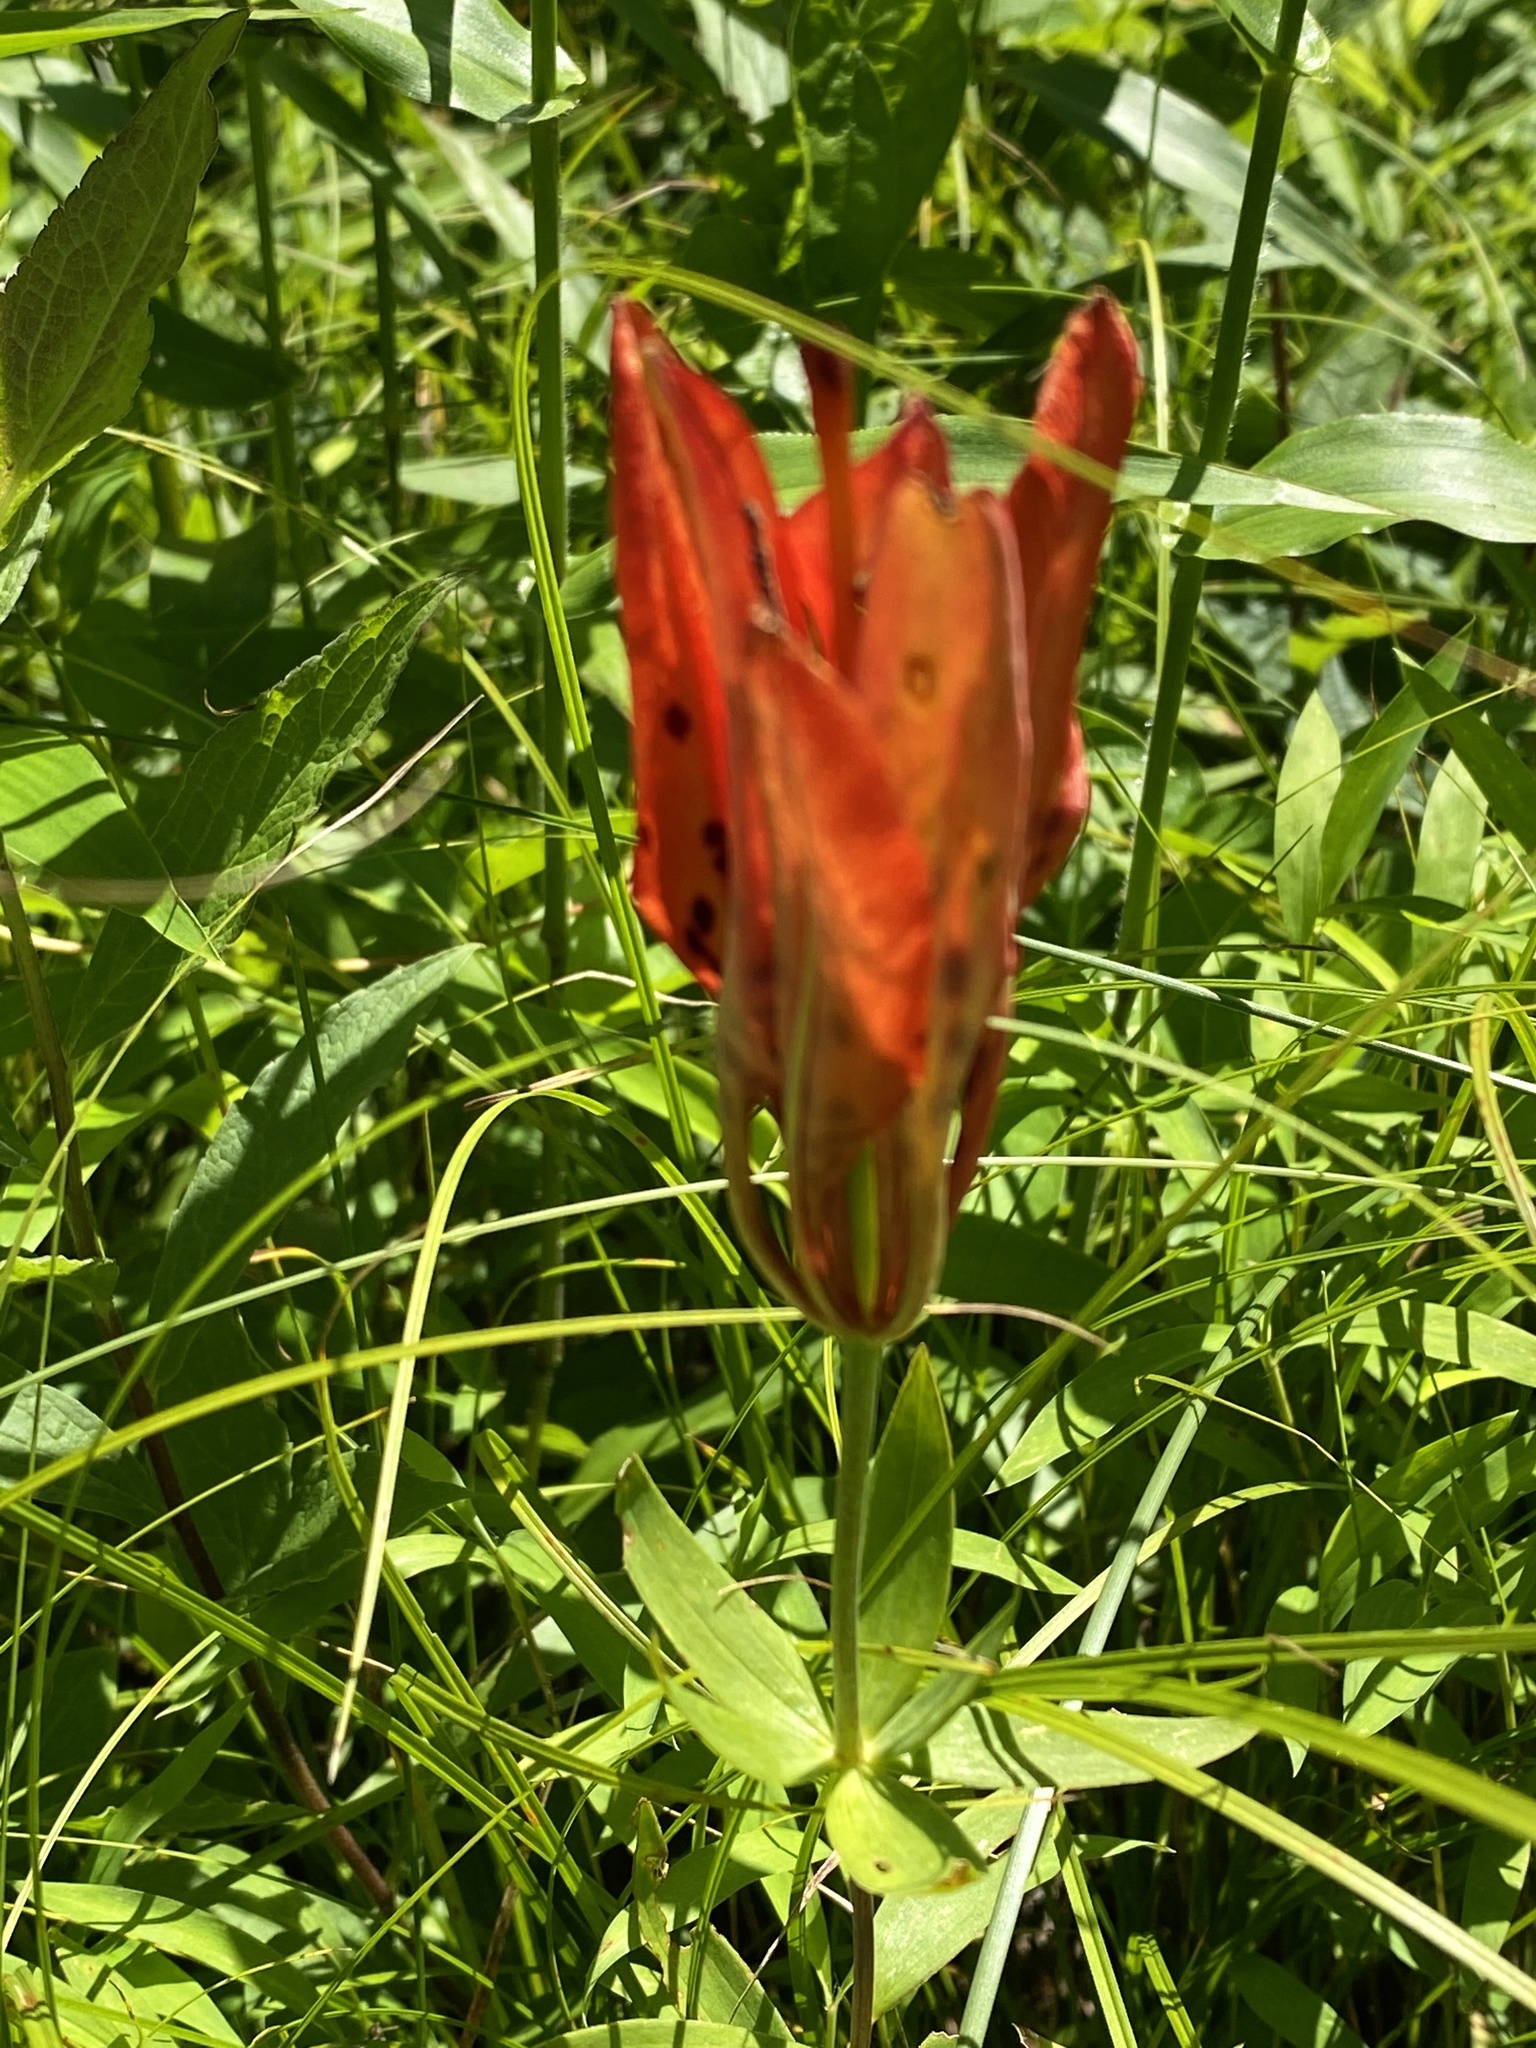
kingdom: Plantae
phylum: Tracheophyta
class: Liliopsida
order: Liliales
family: Liliaceae
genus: Lilium
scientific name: Lilium philadelphicum
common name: Red lily
